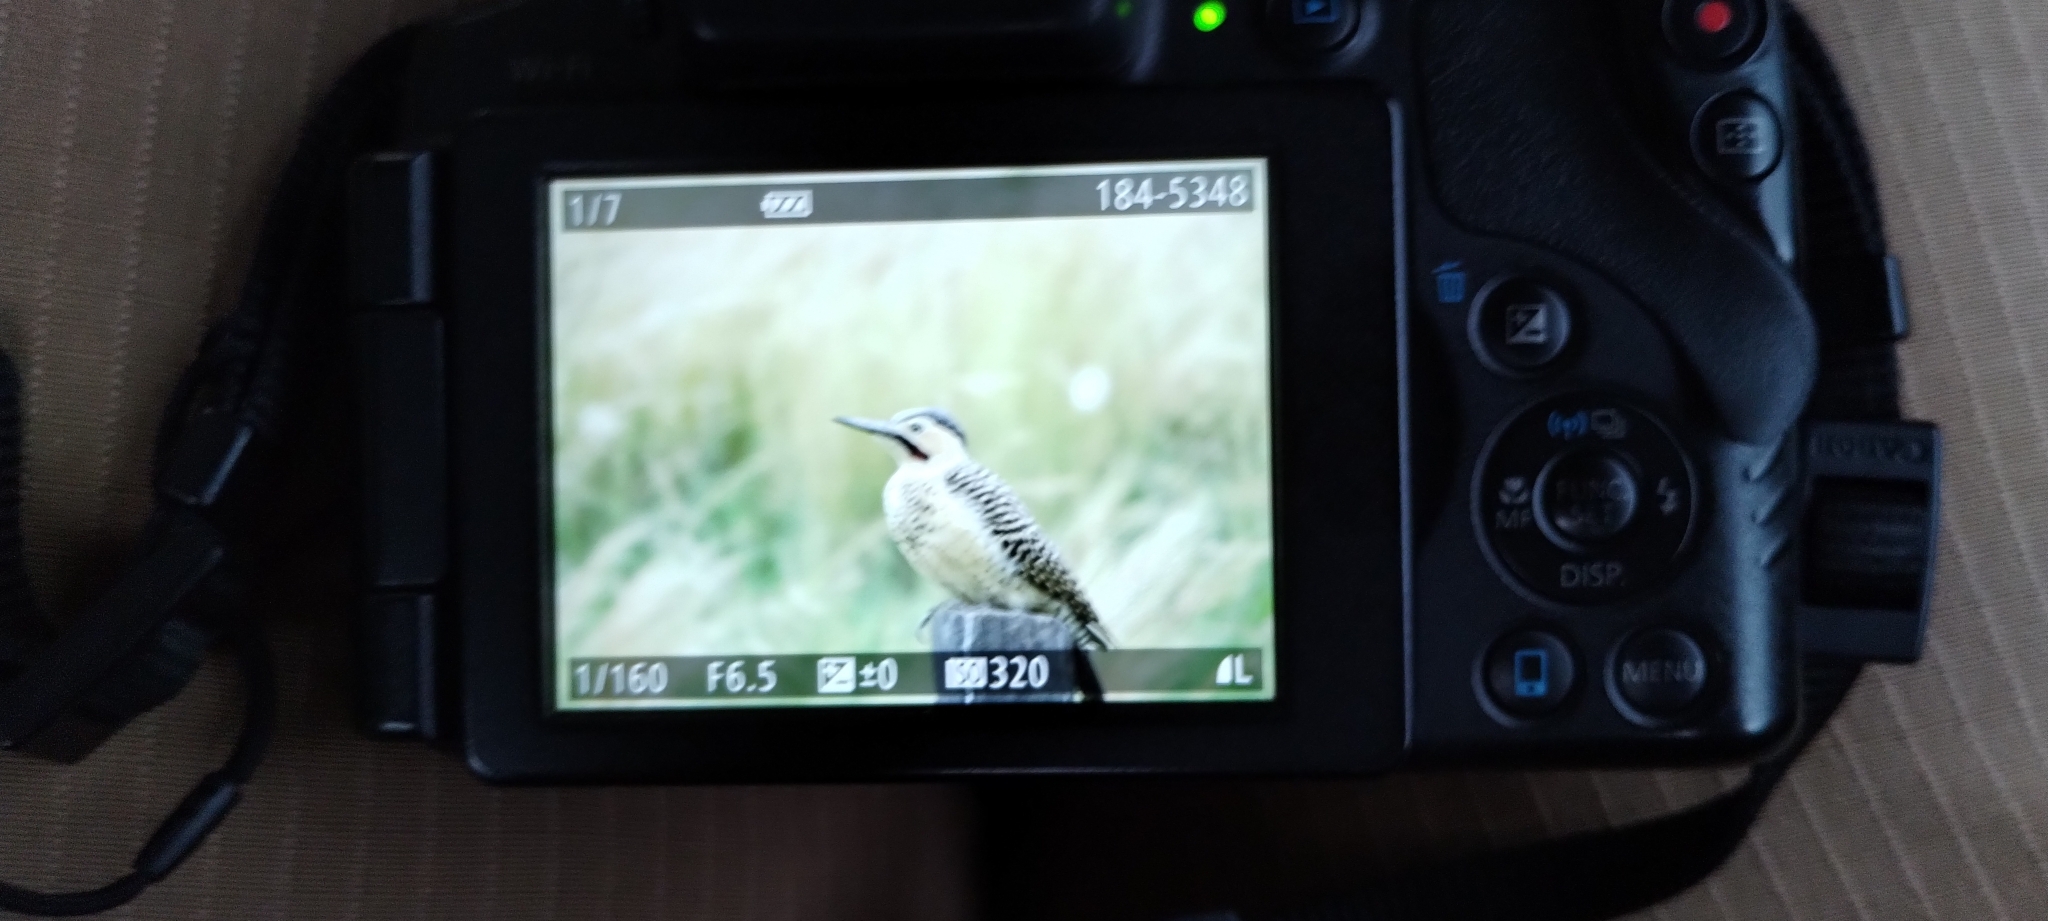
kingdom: Animalia
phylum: Chordata
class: Aves
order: Piciformes
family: Picidae
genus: Colaptes
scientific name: Colaptes rupicola
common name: Andean flicker
